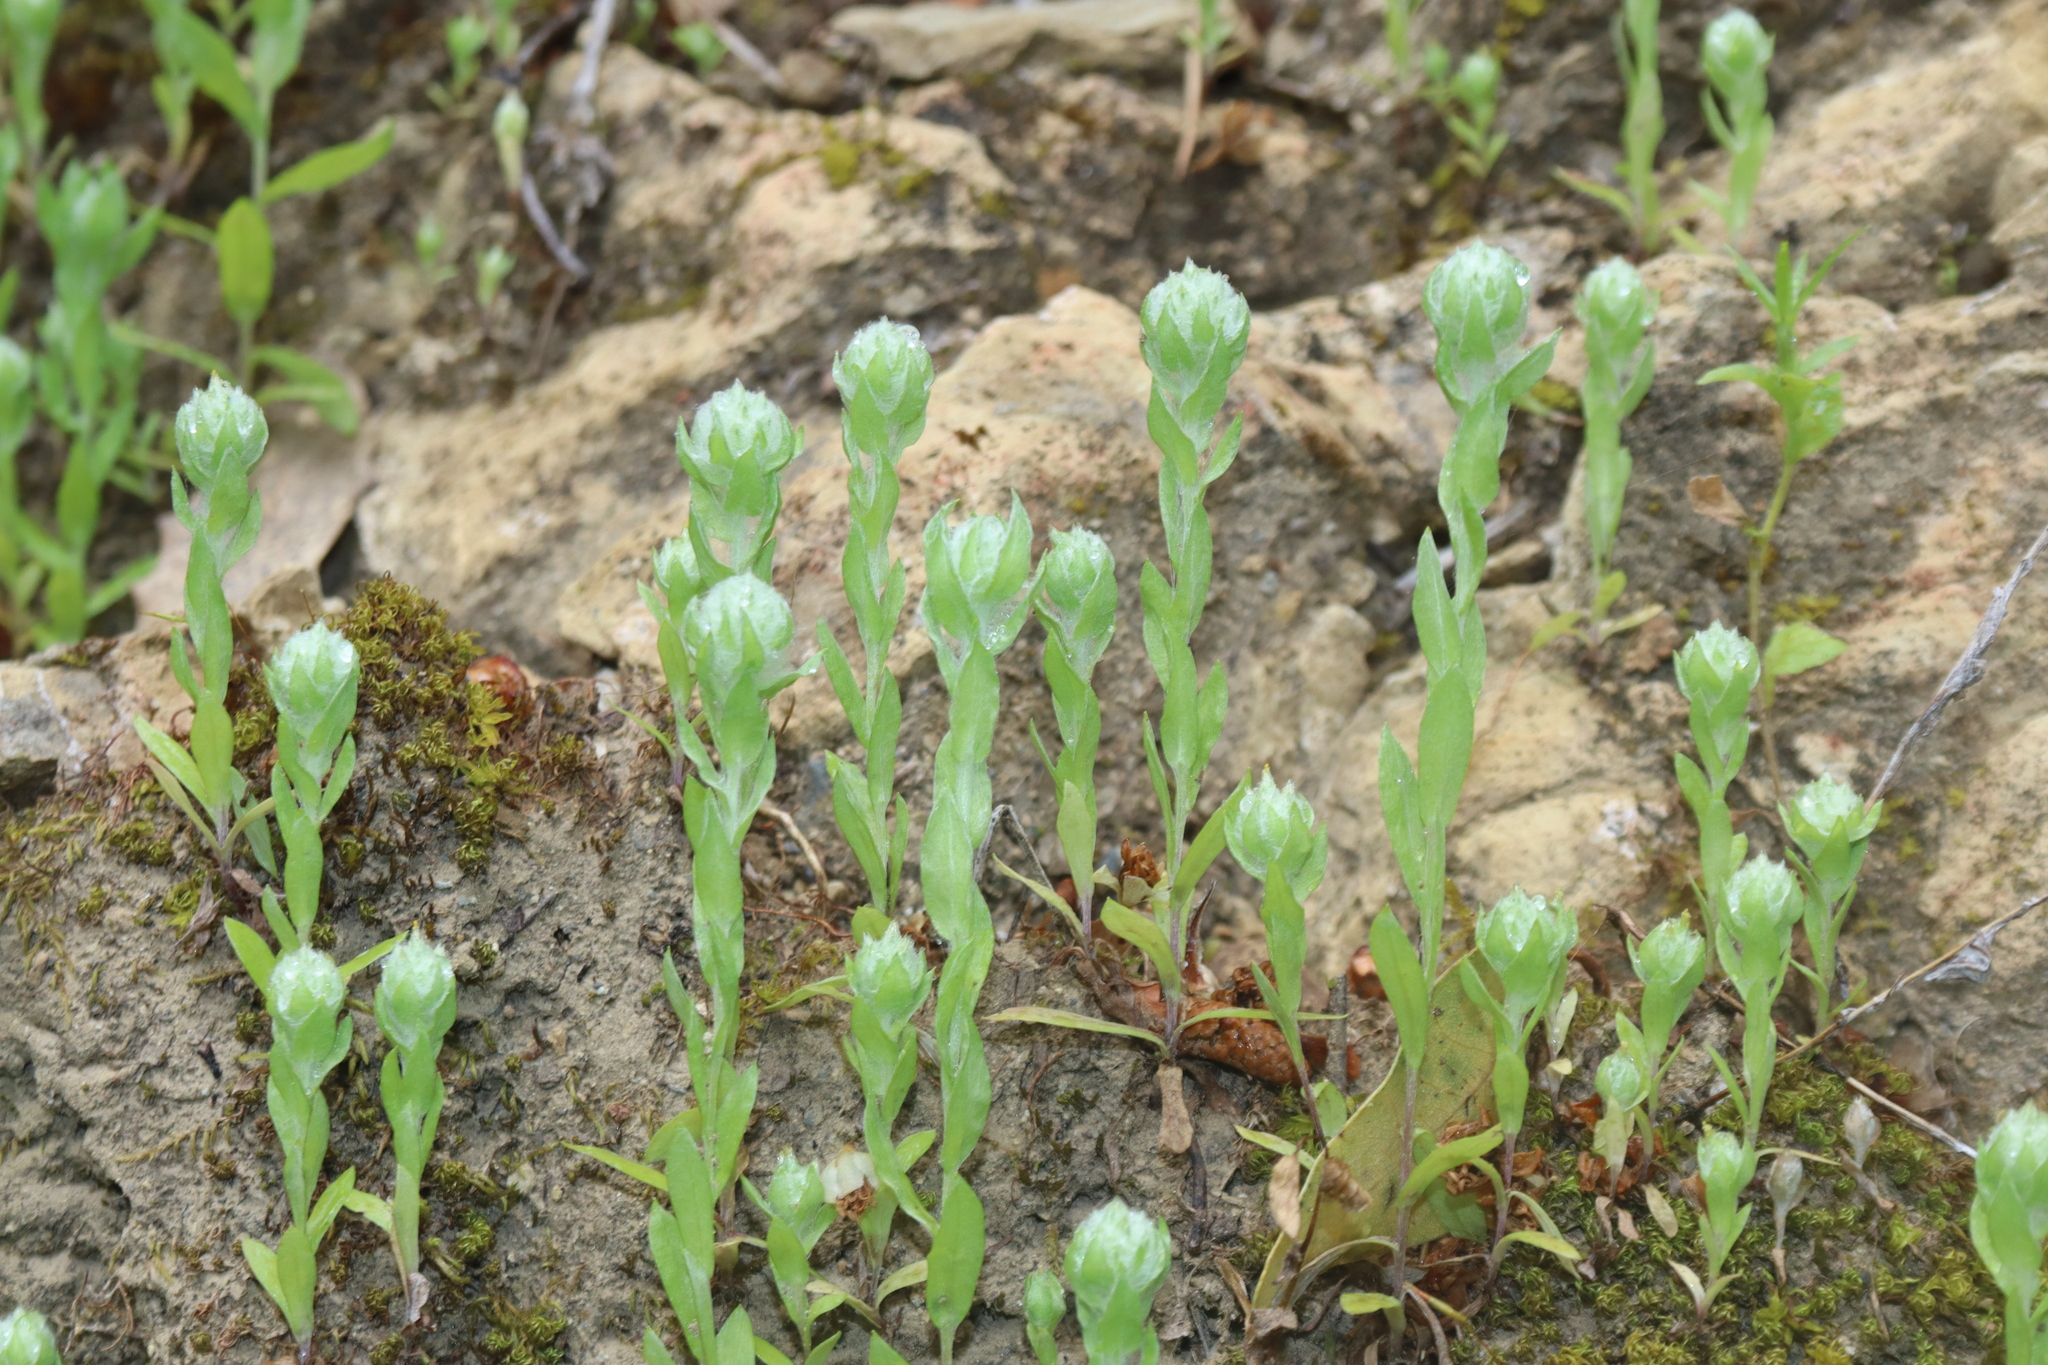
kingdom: Plantae
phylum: Tracheophyta
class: Magnoliopsida
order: Asterales
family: Asteraceae
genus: Filago
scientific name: Filago eriocephala
